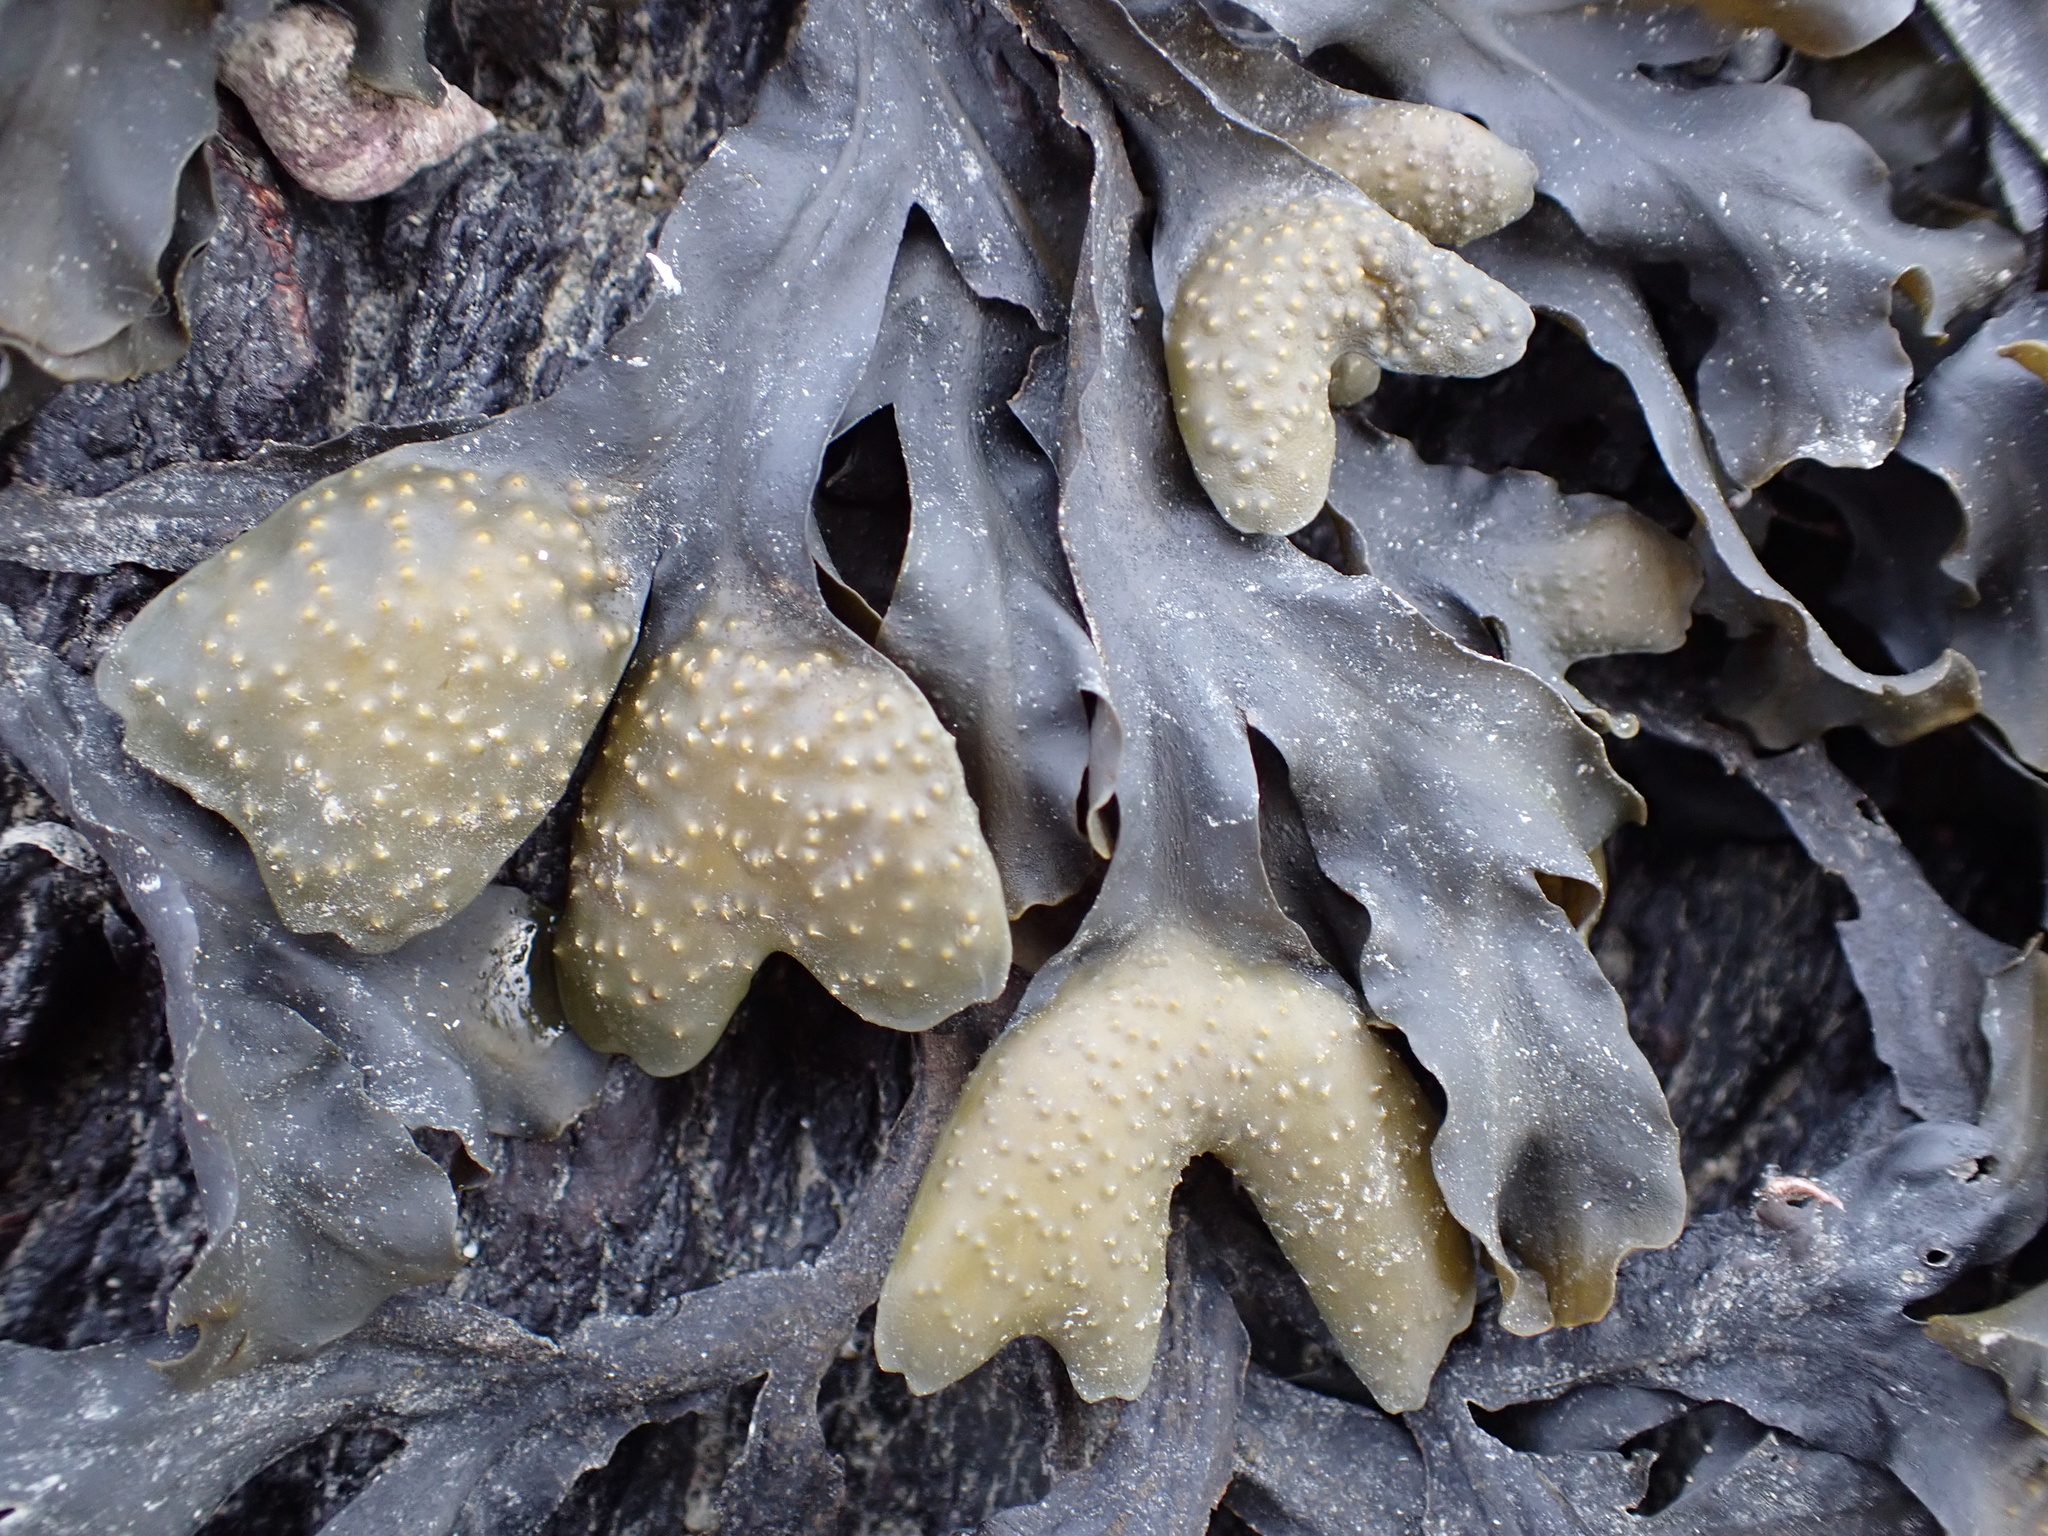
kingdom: Chromista
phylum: Ochrophyta
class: Phaeophyceae
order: Fucales
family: Fucaceae
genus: Fucus
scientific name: Fucus distichus
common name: Rockweed
